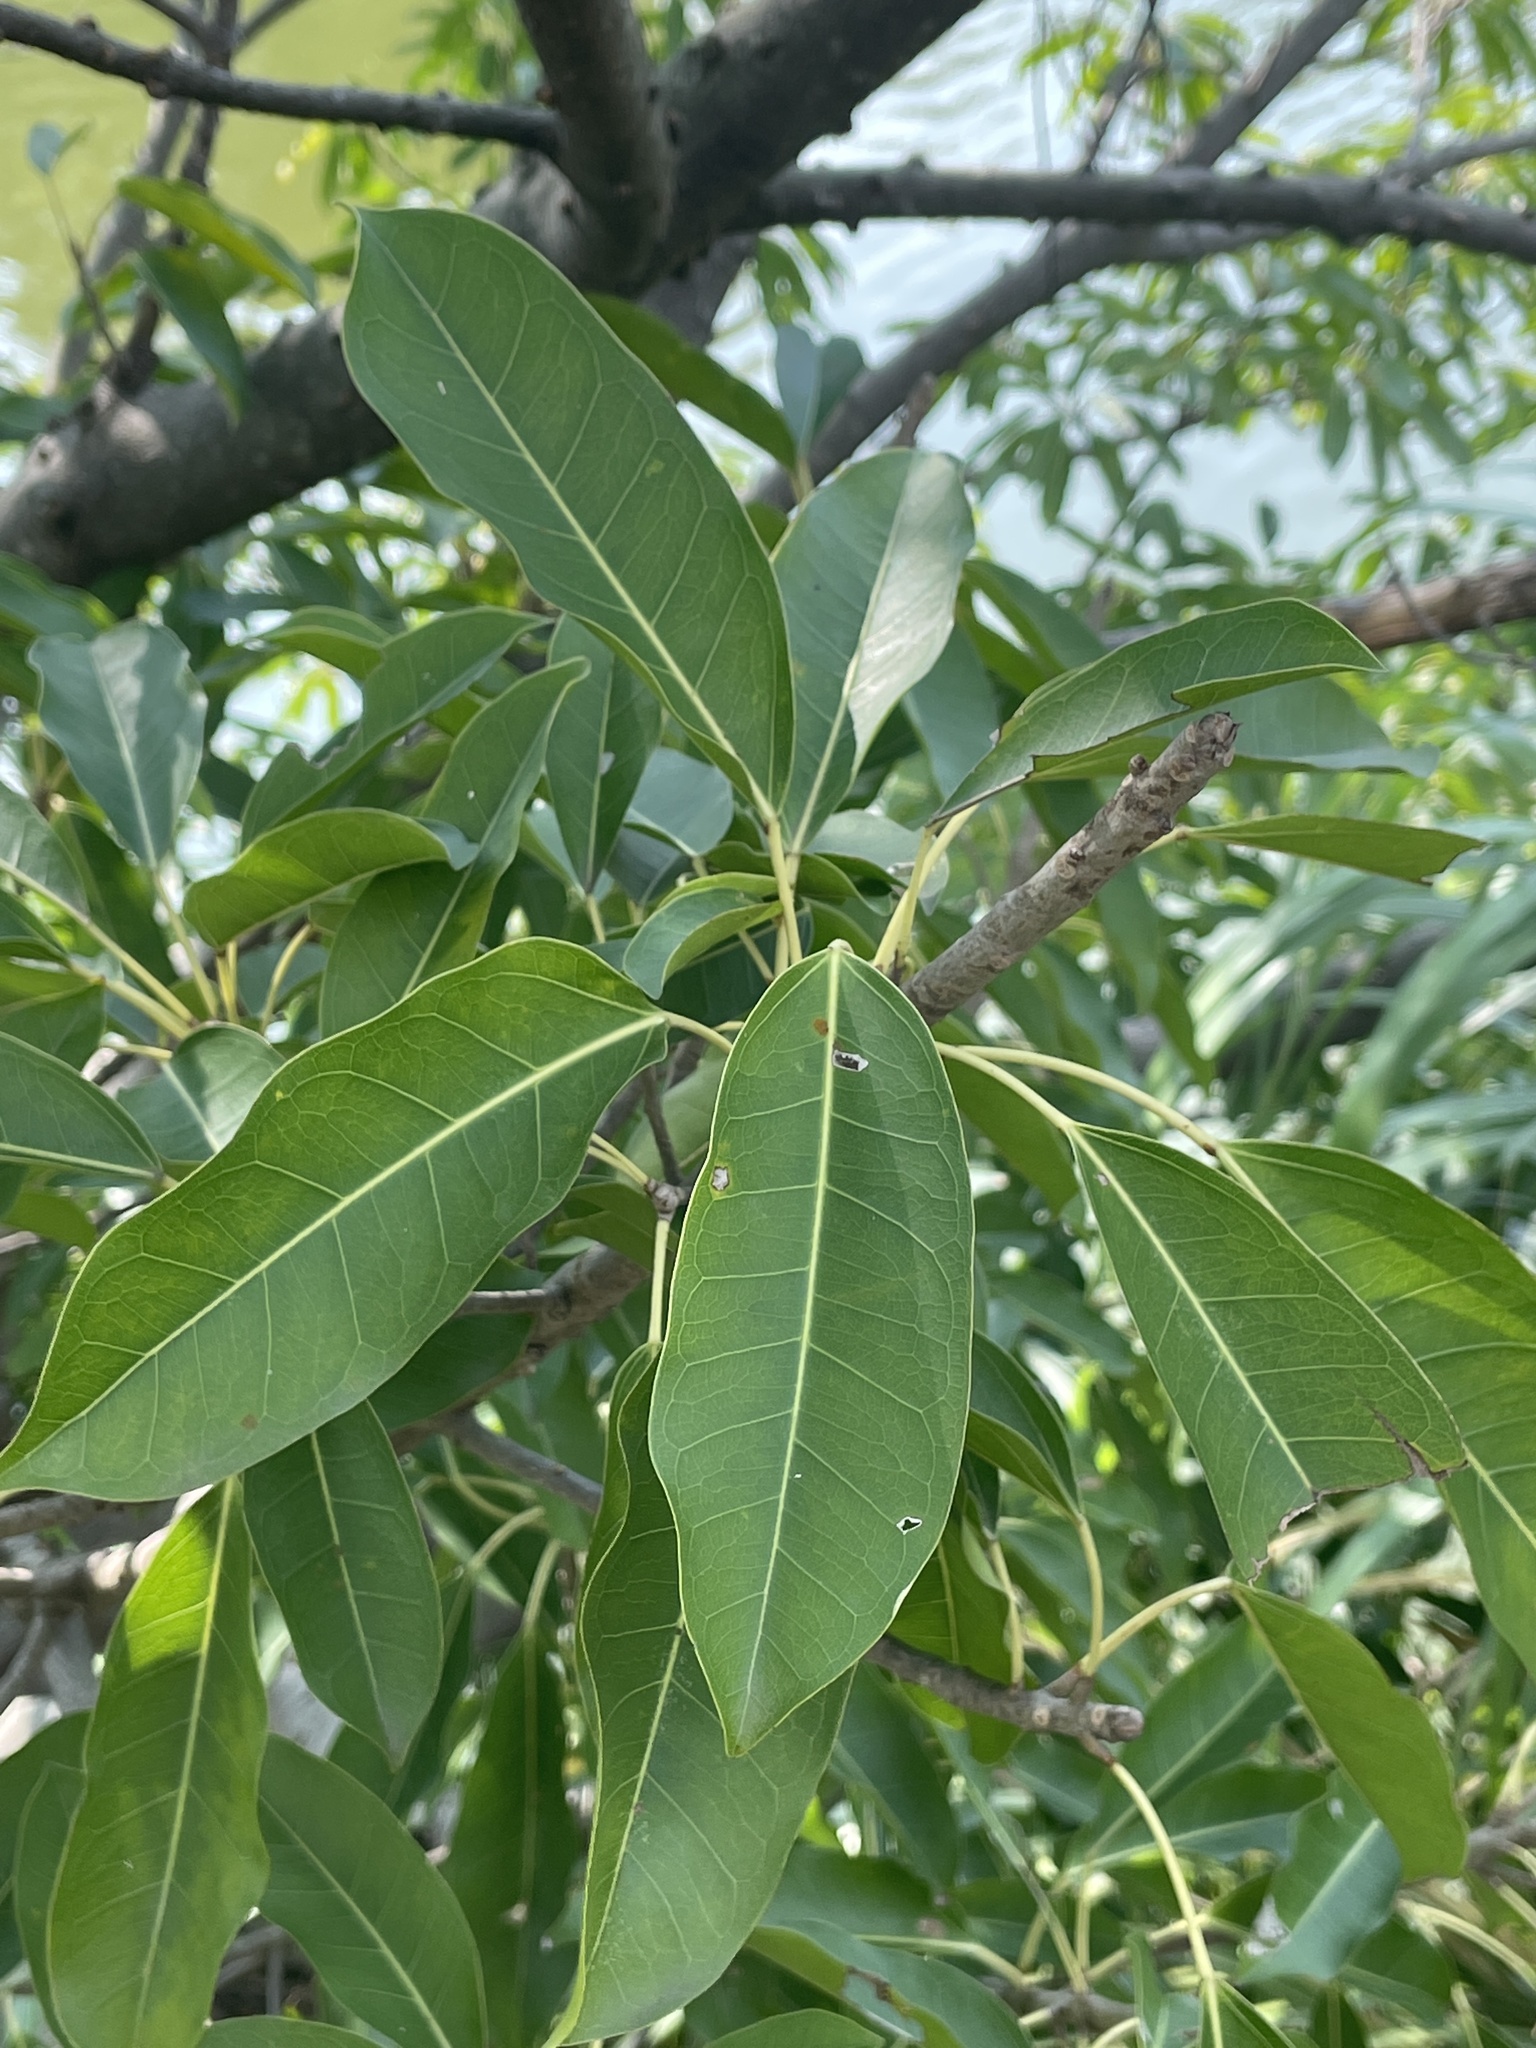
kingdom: Plantae
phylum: Tracheophyta
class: Magnoliopsida
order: Rosales
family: Moraceae
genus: Ficus
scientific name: Ficus subpisocarpa
